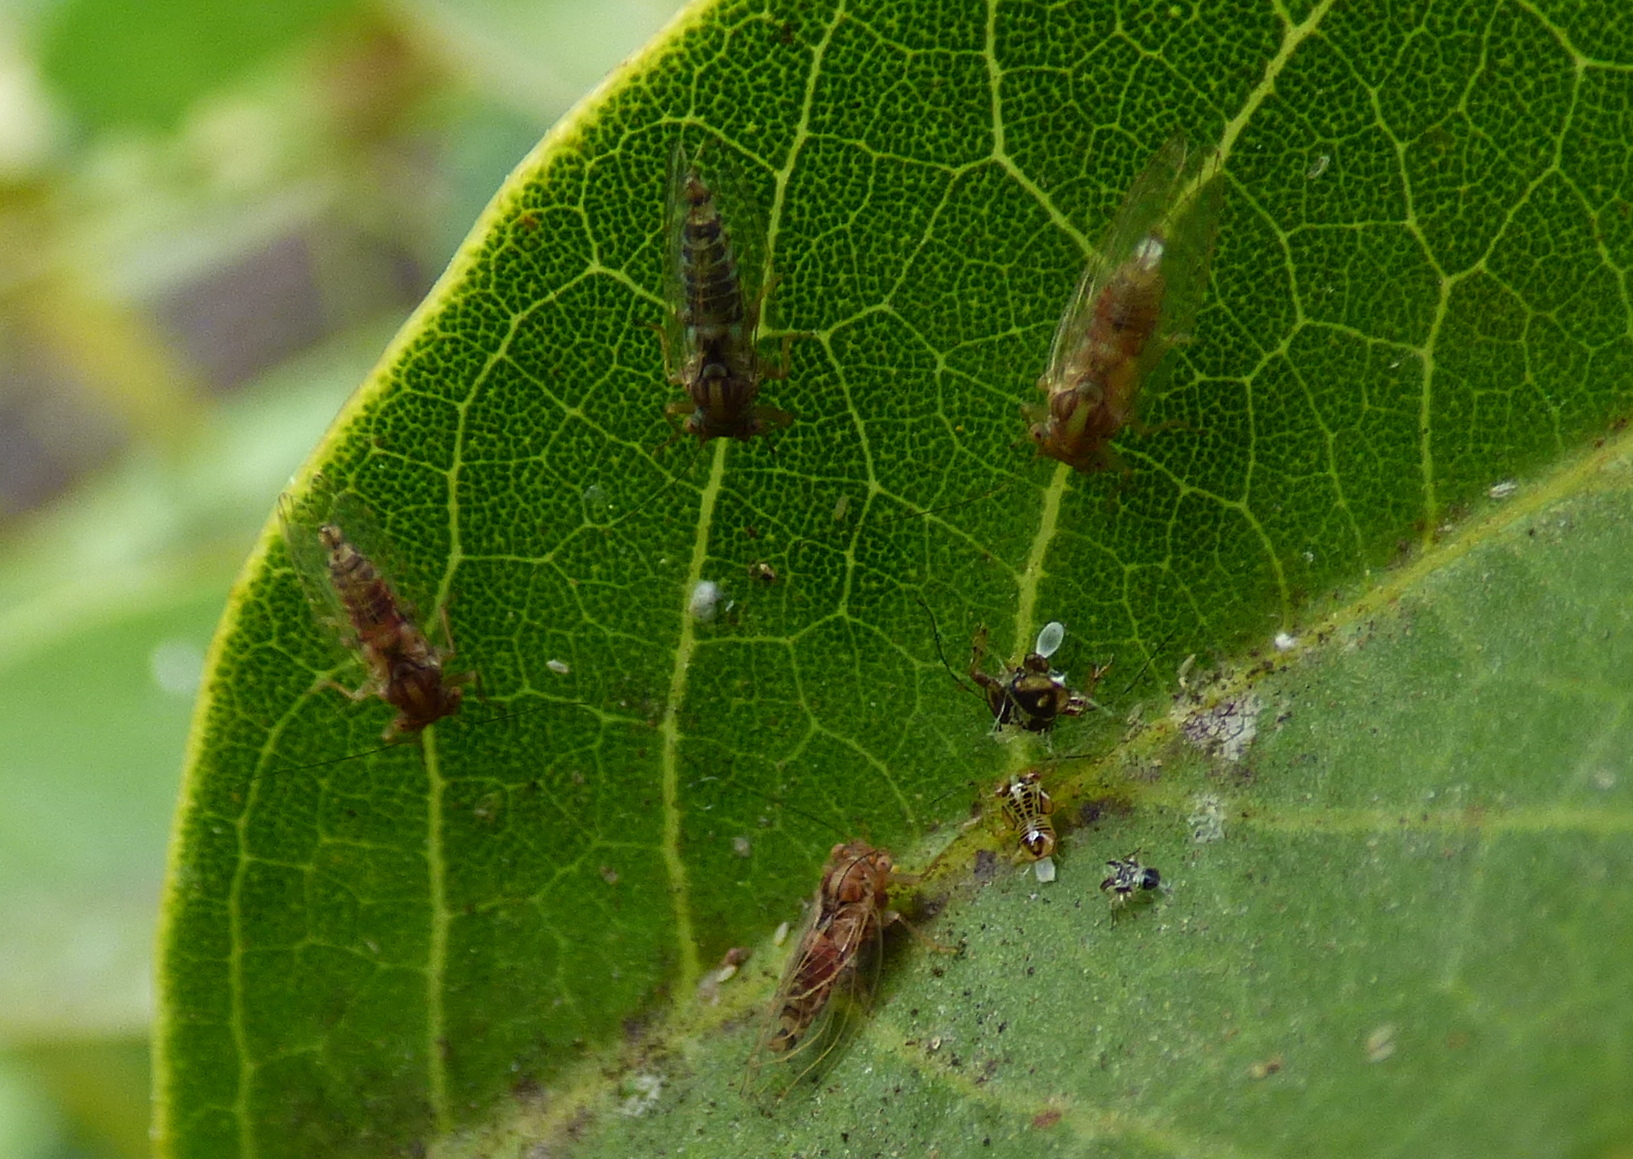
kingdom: Animalia
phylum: Arthropoda
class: Insecta
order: Hemiptera
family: Psyllidae
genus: Platycorypha
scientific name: Platycorypha erythrinae
